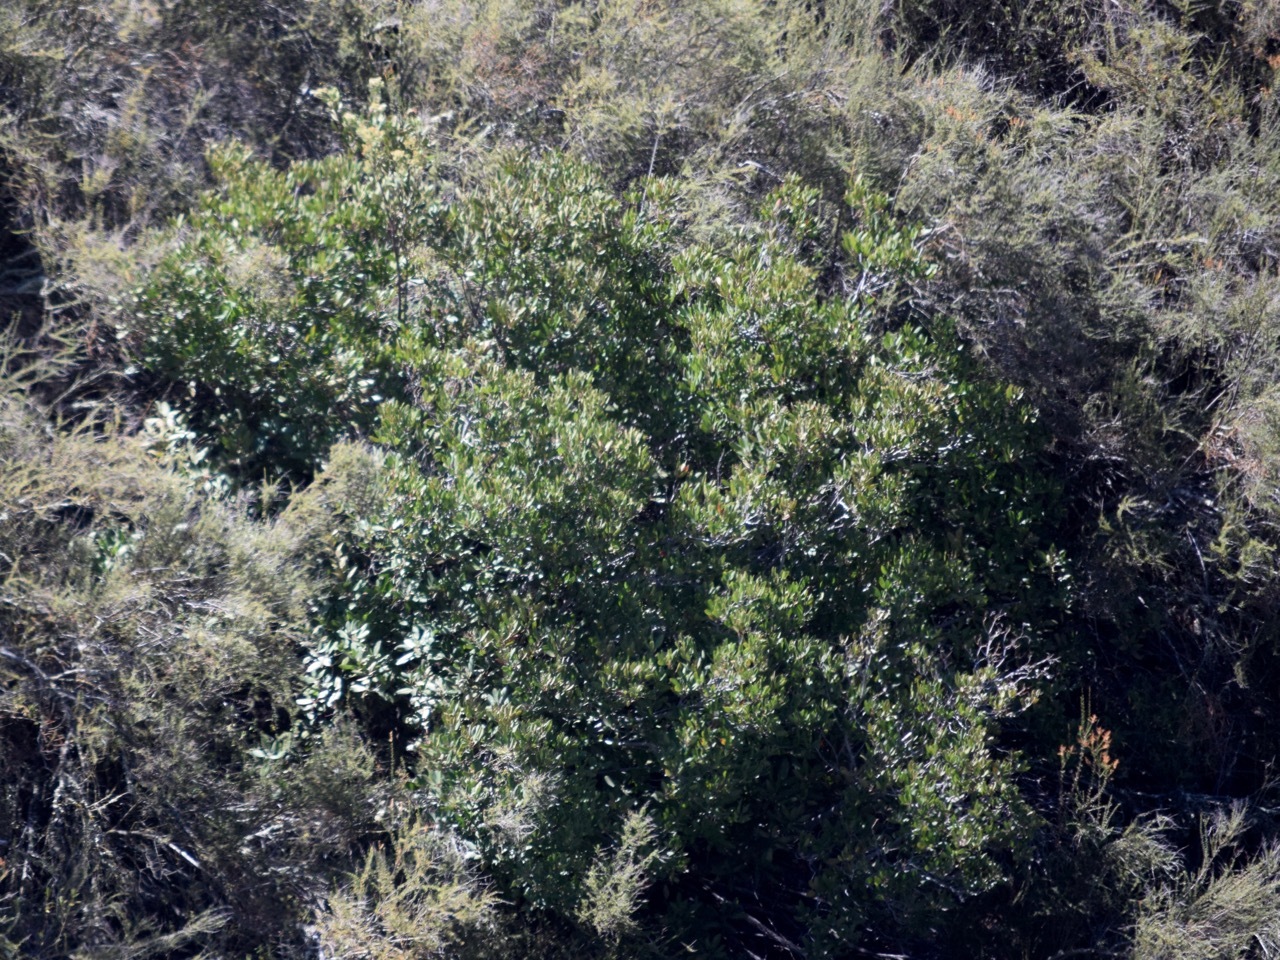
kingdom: Plantae
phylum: Tracheophyta
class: Magnoliopsida
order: Rosales
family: Rosaceae
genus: Heteromeles
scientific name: Heteromeles arbutifolia
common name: California-holly
